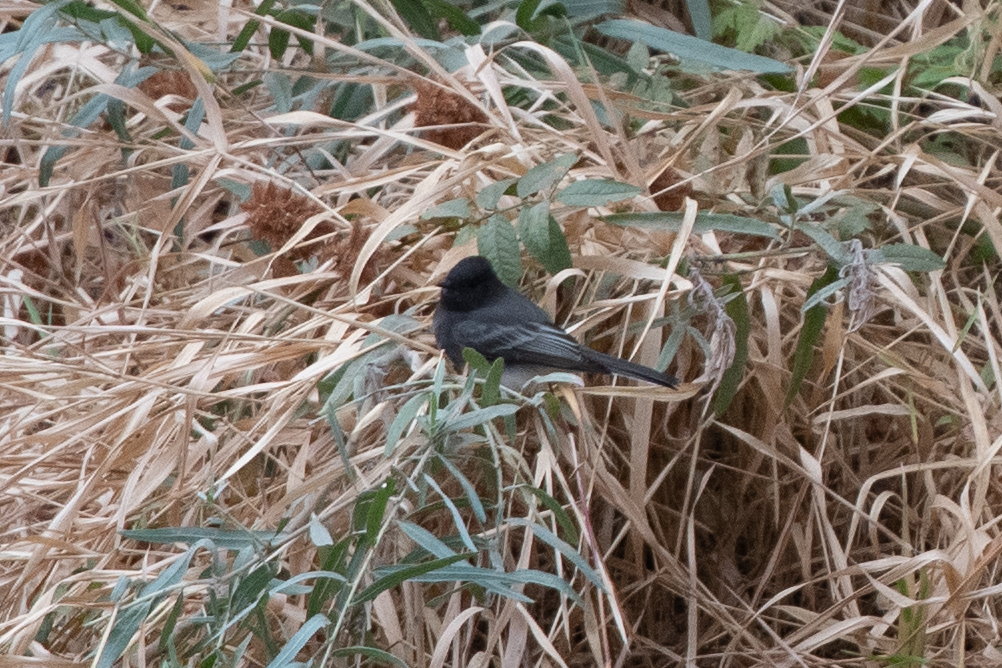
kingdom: Animalia
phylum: Chordata
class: Aves
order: Passeriformes
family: Tyrannidae
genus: Sayornis
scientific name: Sayornis nigricans
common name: Black phoebe
